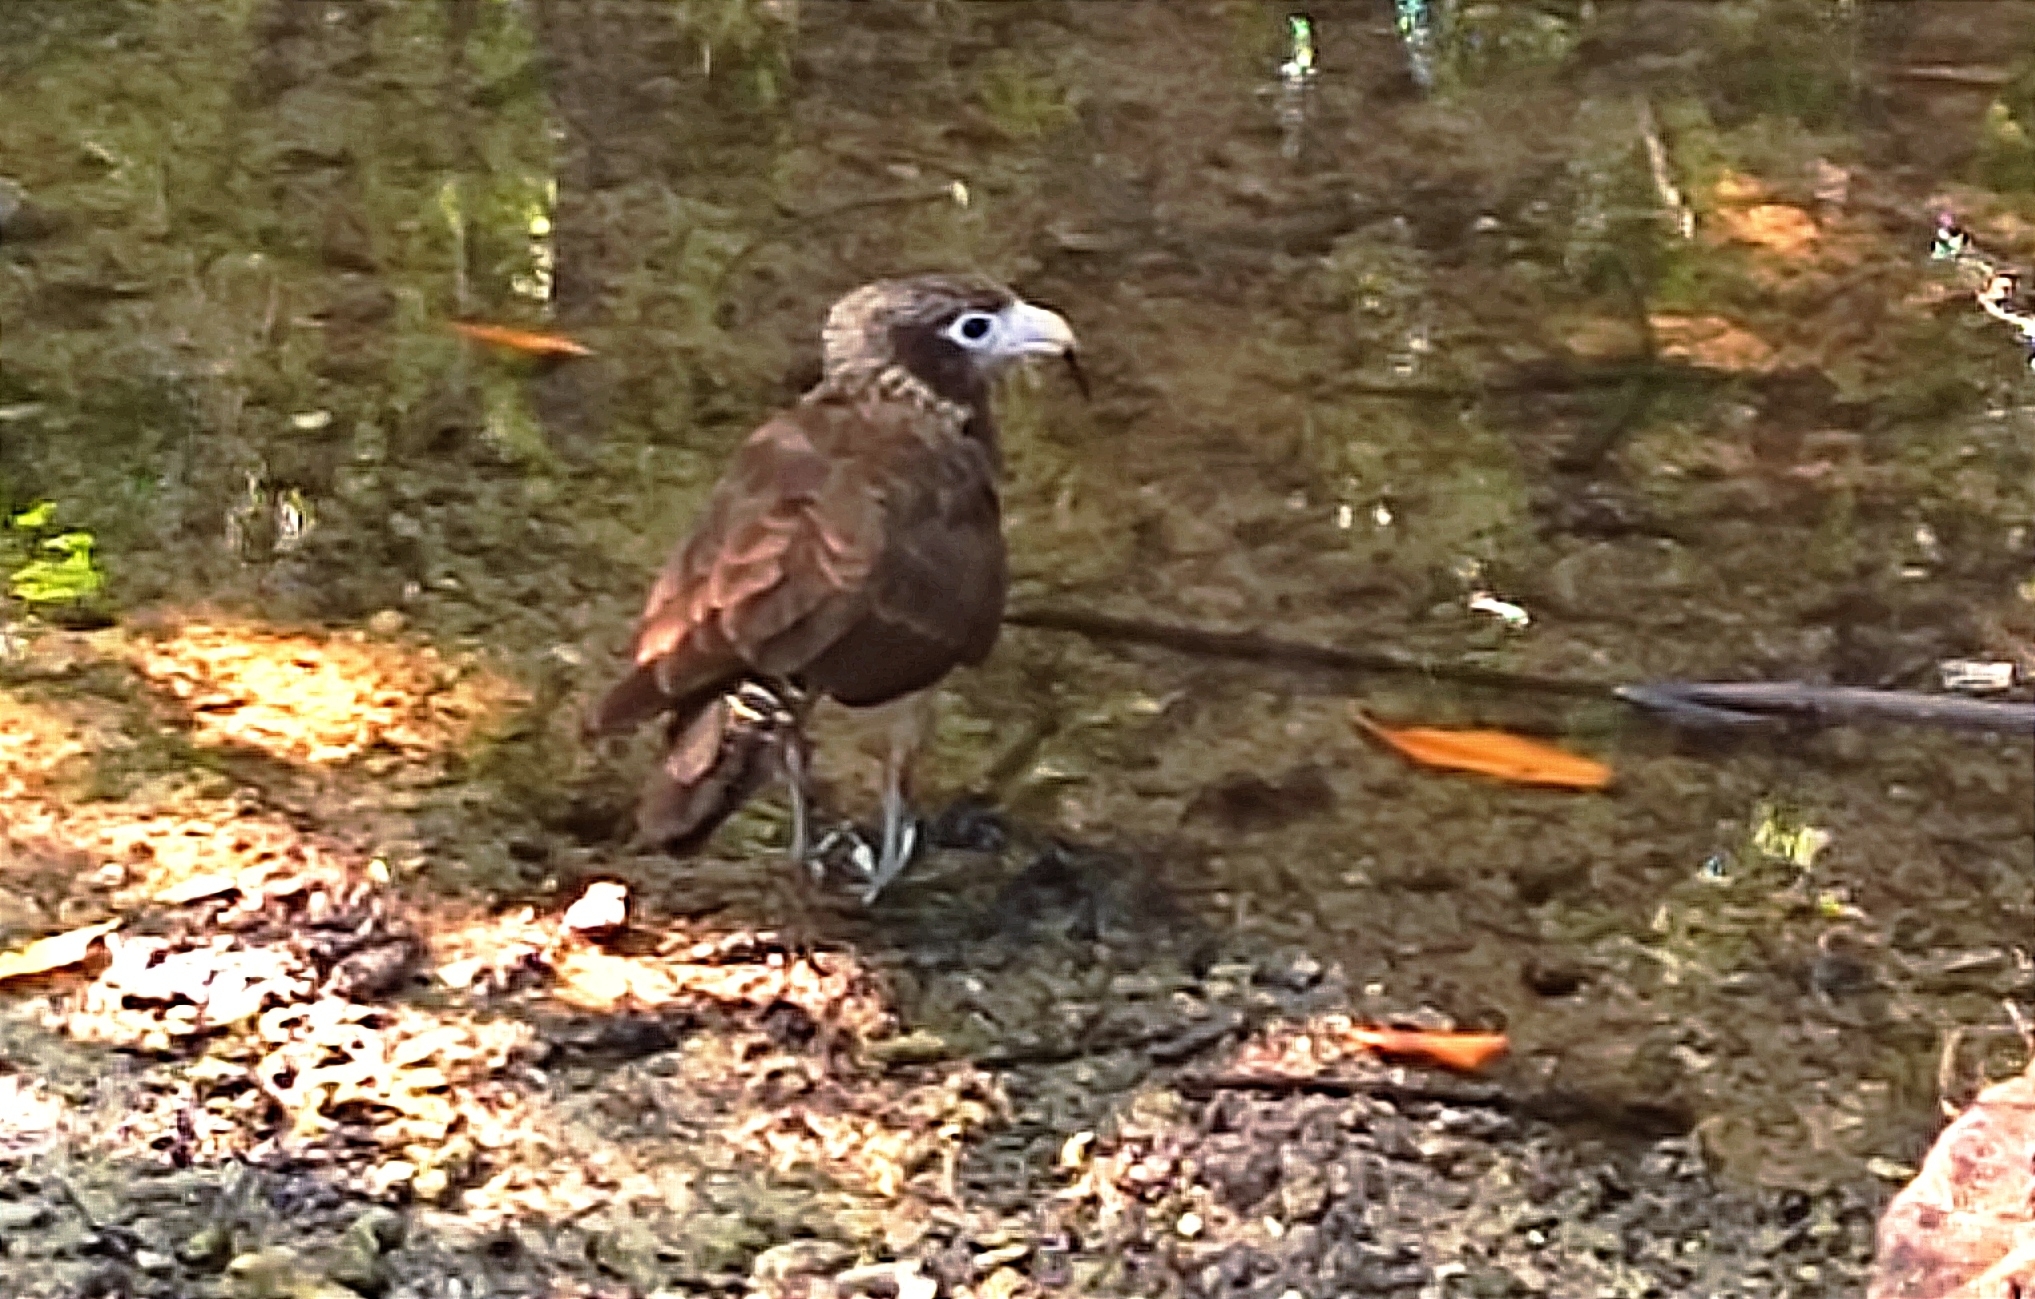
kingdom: Animalia
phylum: Chordata
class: Aves
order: Falconiformes
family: Falconidae
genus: Daptrius
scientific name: Daptrius
